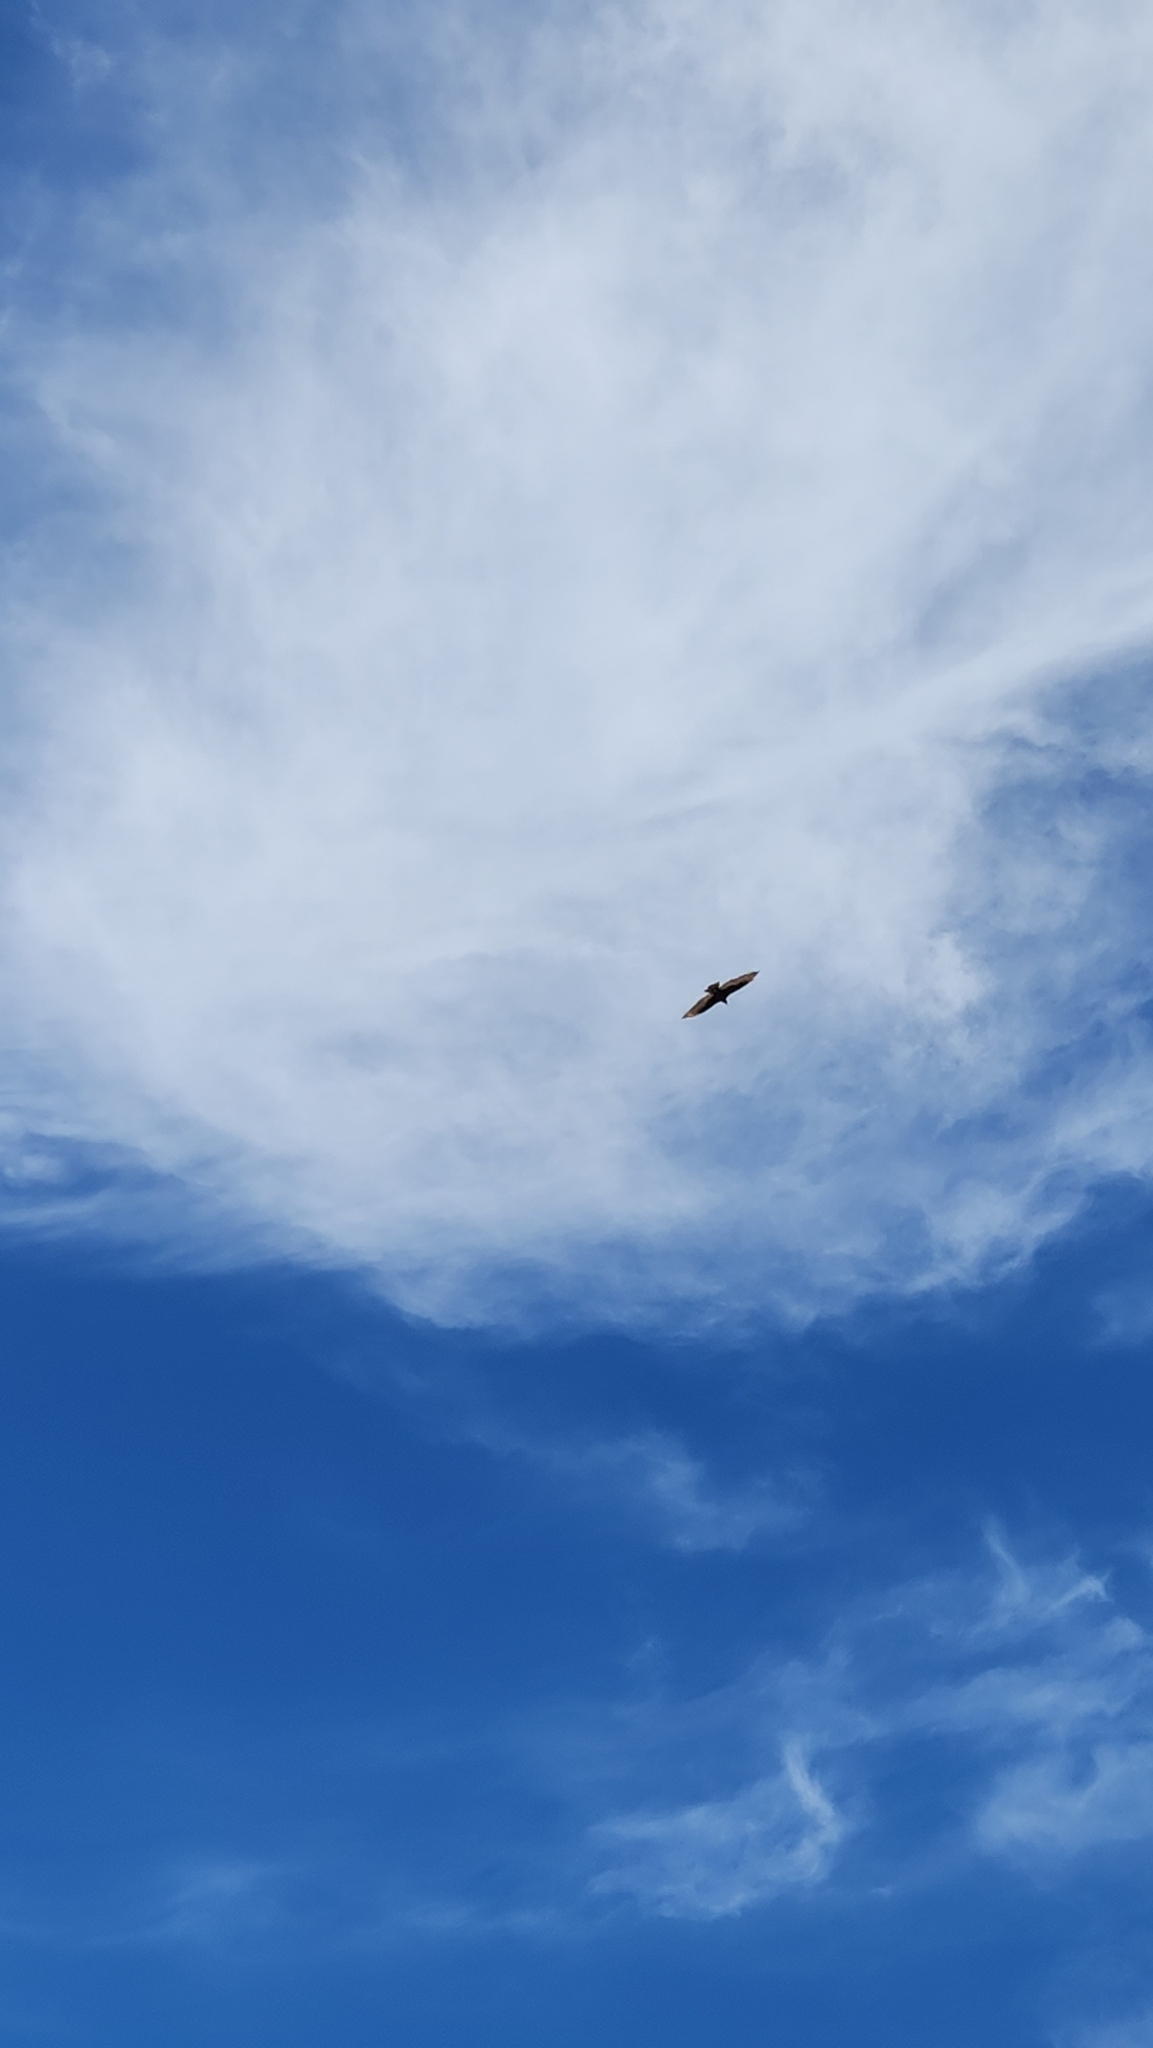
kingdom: Animalia
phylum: Chordata
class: Aves
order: Accipitriformes
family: Cathartidae
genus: Cathartes
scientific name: Cathartes aura
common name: Turkey vulture
